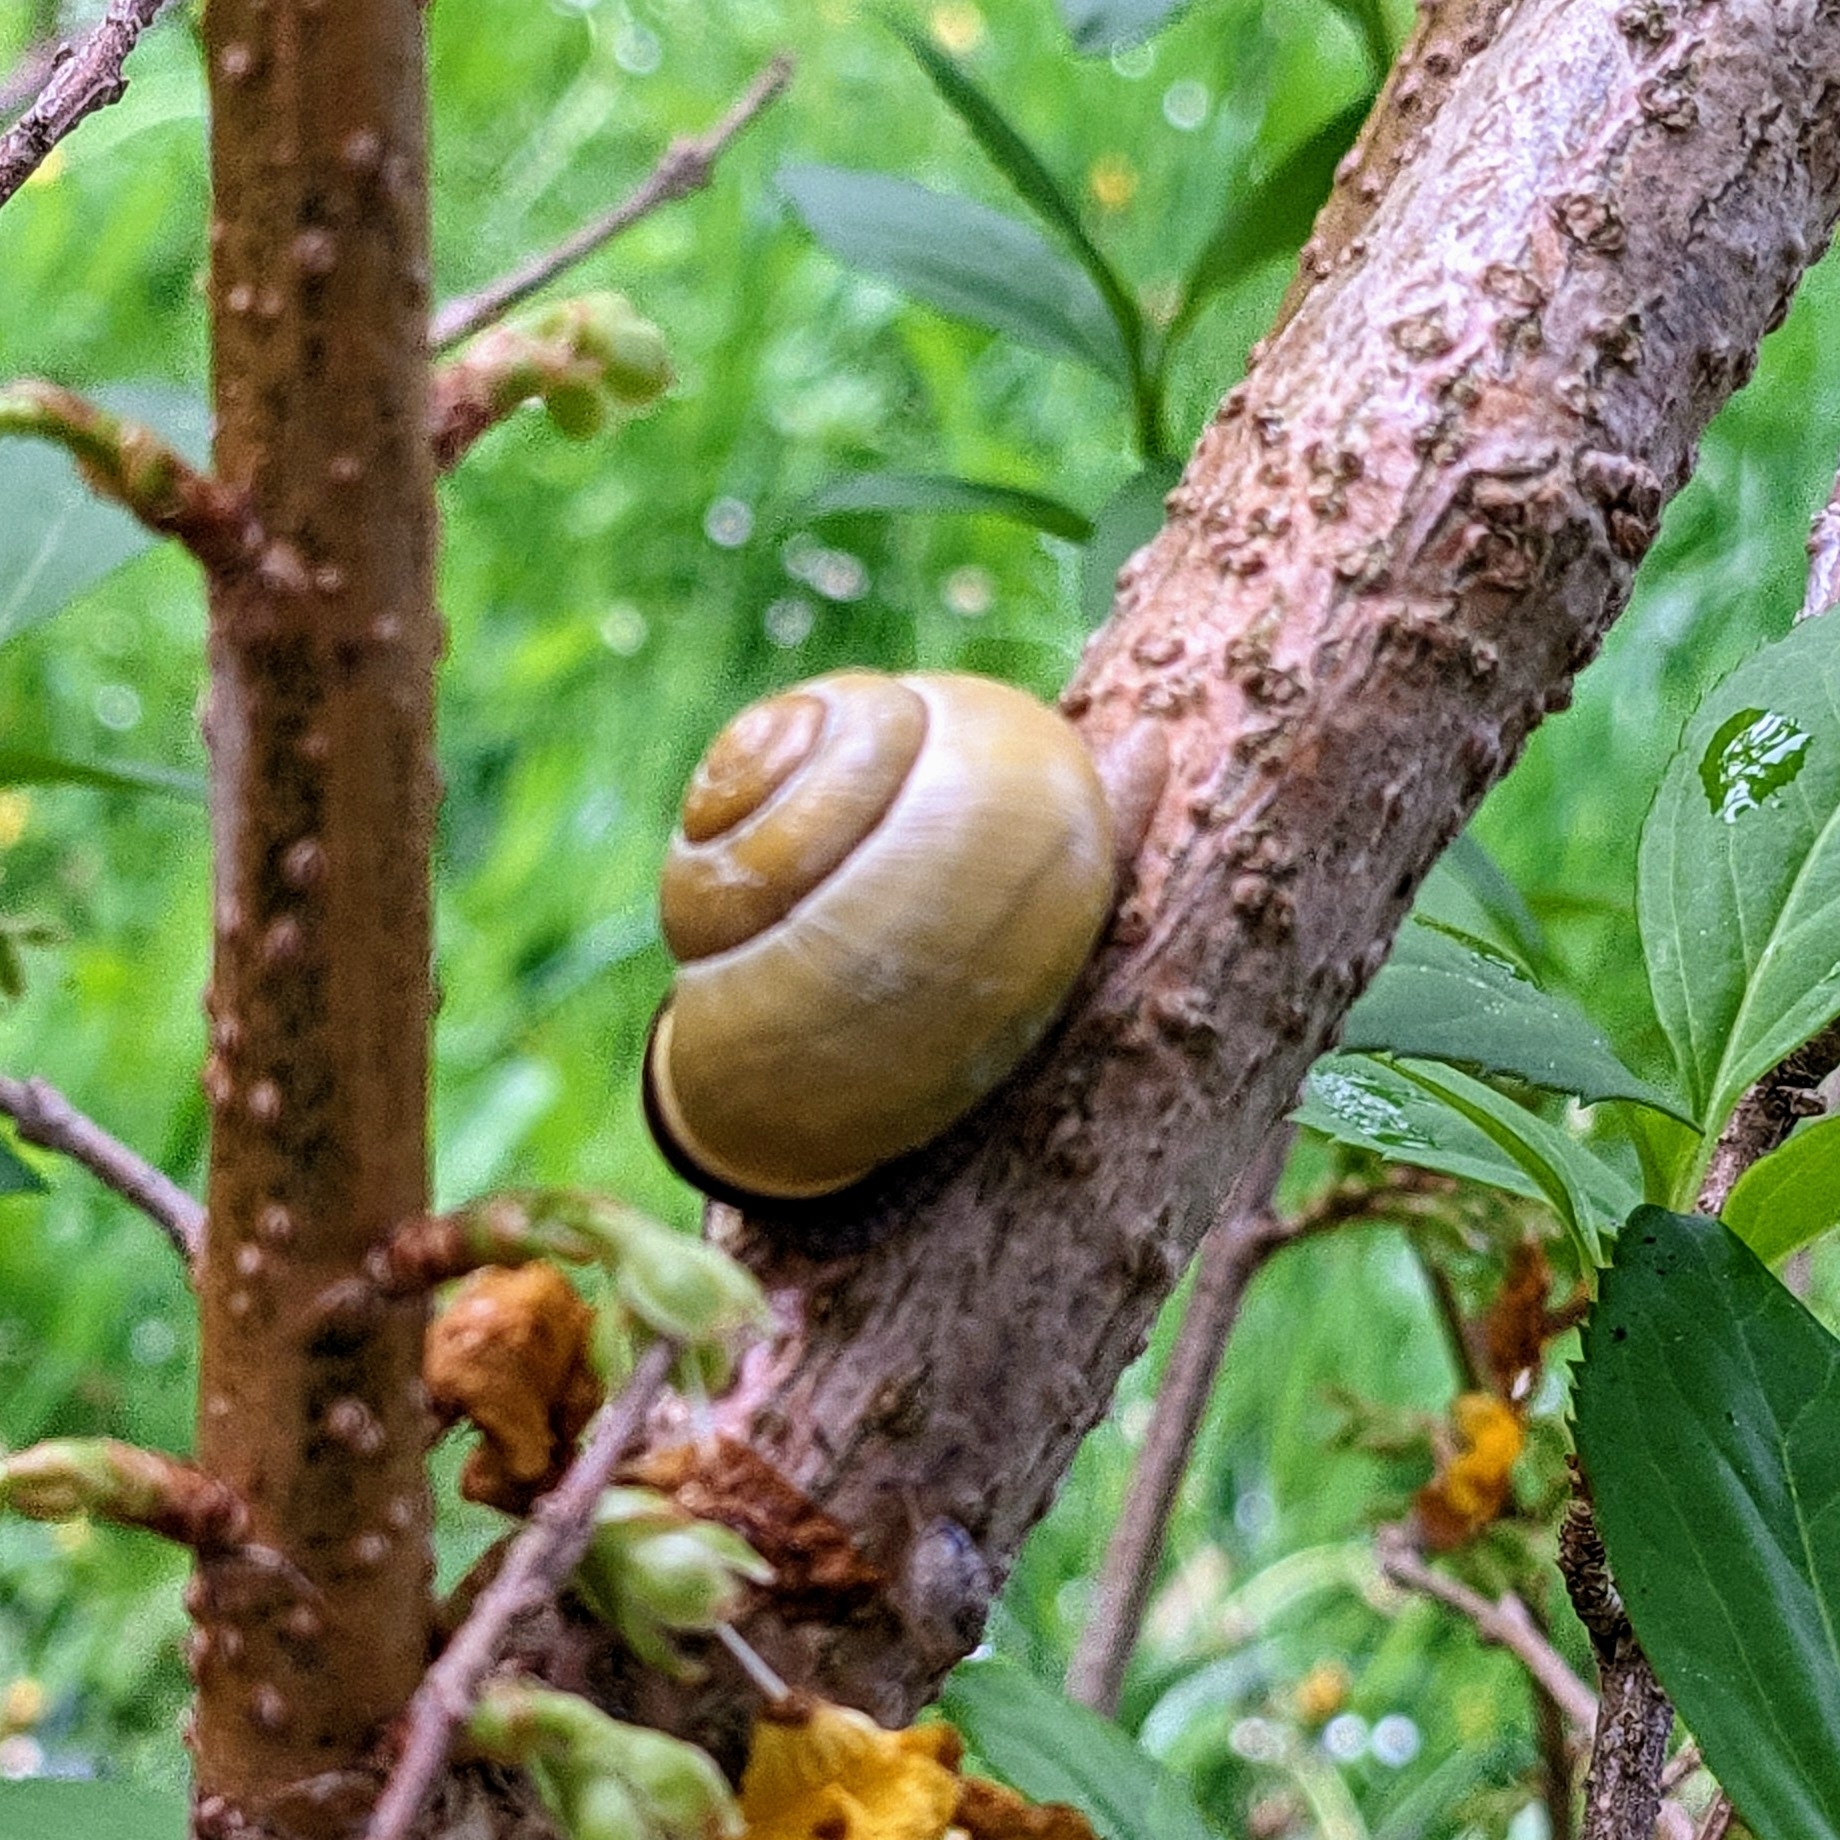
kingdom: Animalia
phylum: Mollusca
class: Gastropoda
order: Stylommatophora
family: Helicidae
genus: Cepaea
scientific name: Cepaea nemoralis
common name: Grovesnail
